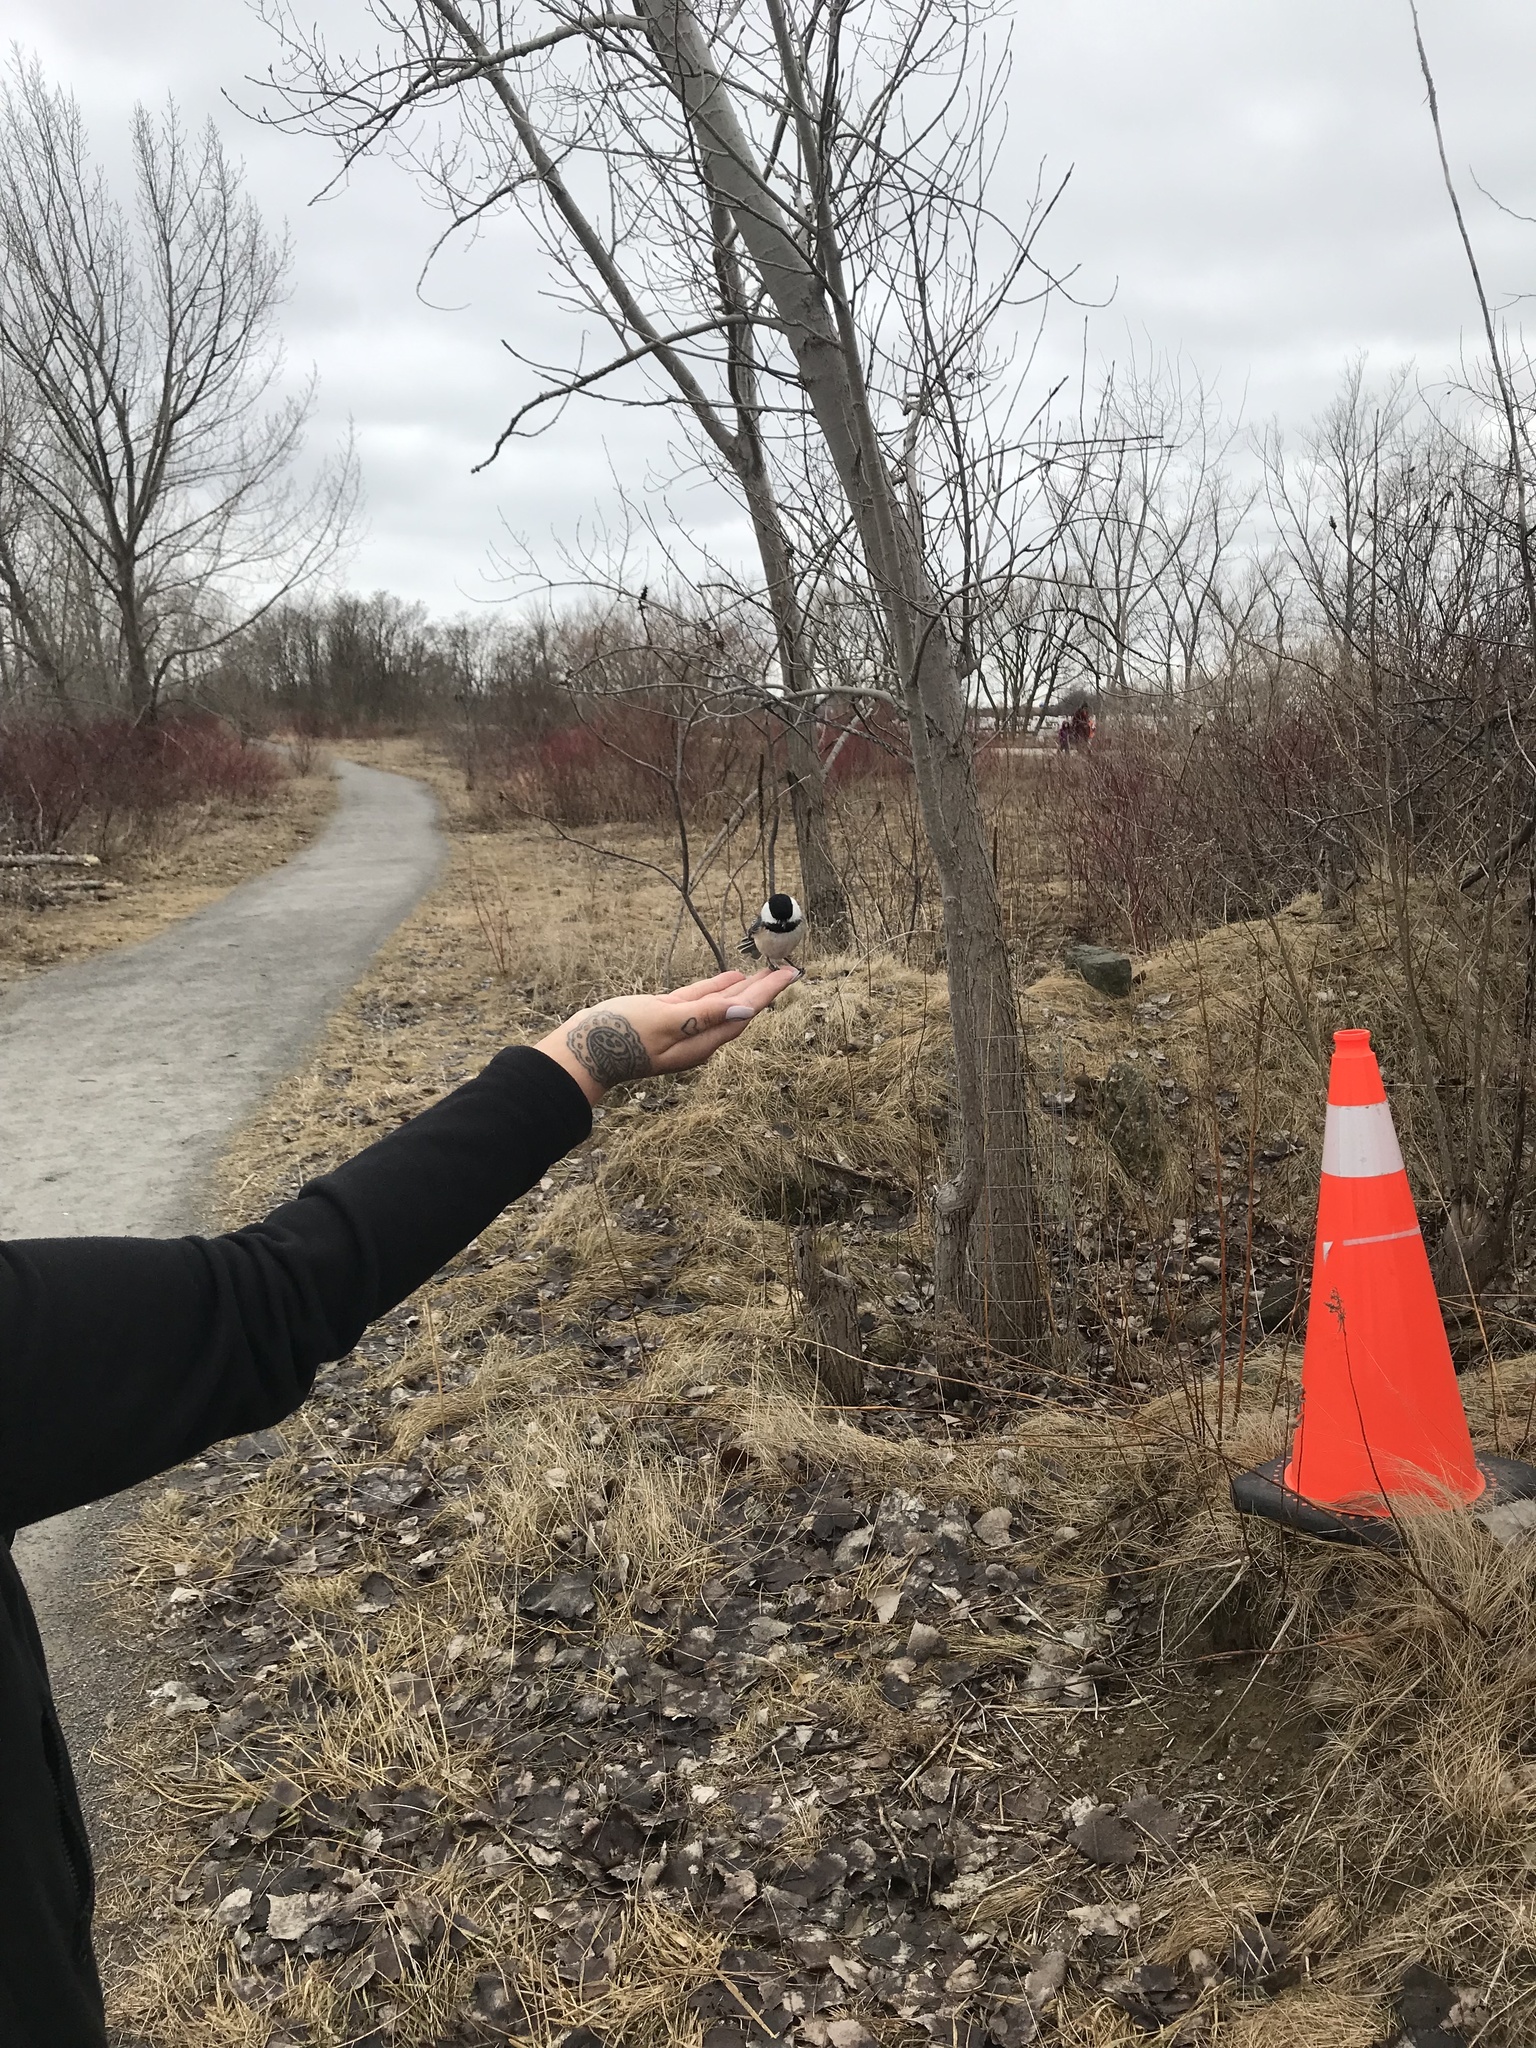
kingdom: Animalia
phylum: Chordata
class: Aves
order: Passeriformes
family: Paridae
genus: Poecile
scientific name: Poecile atricapillus
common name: Black-capped chickadee
